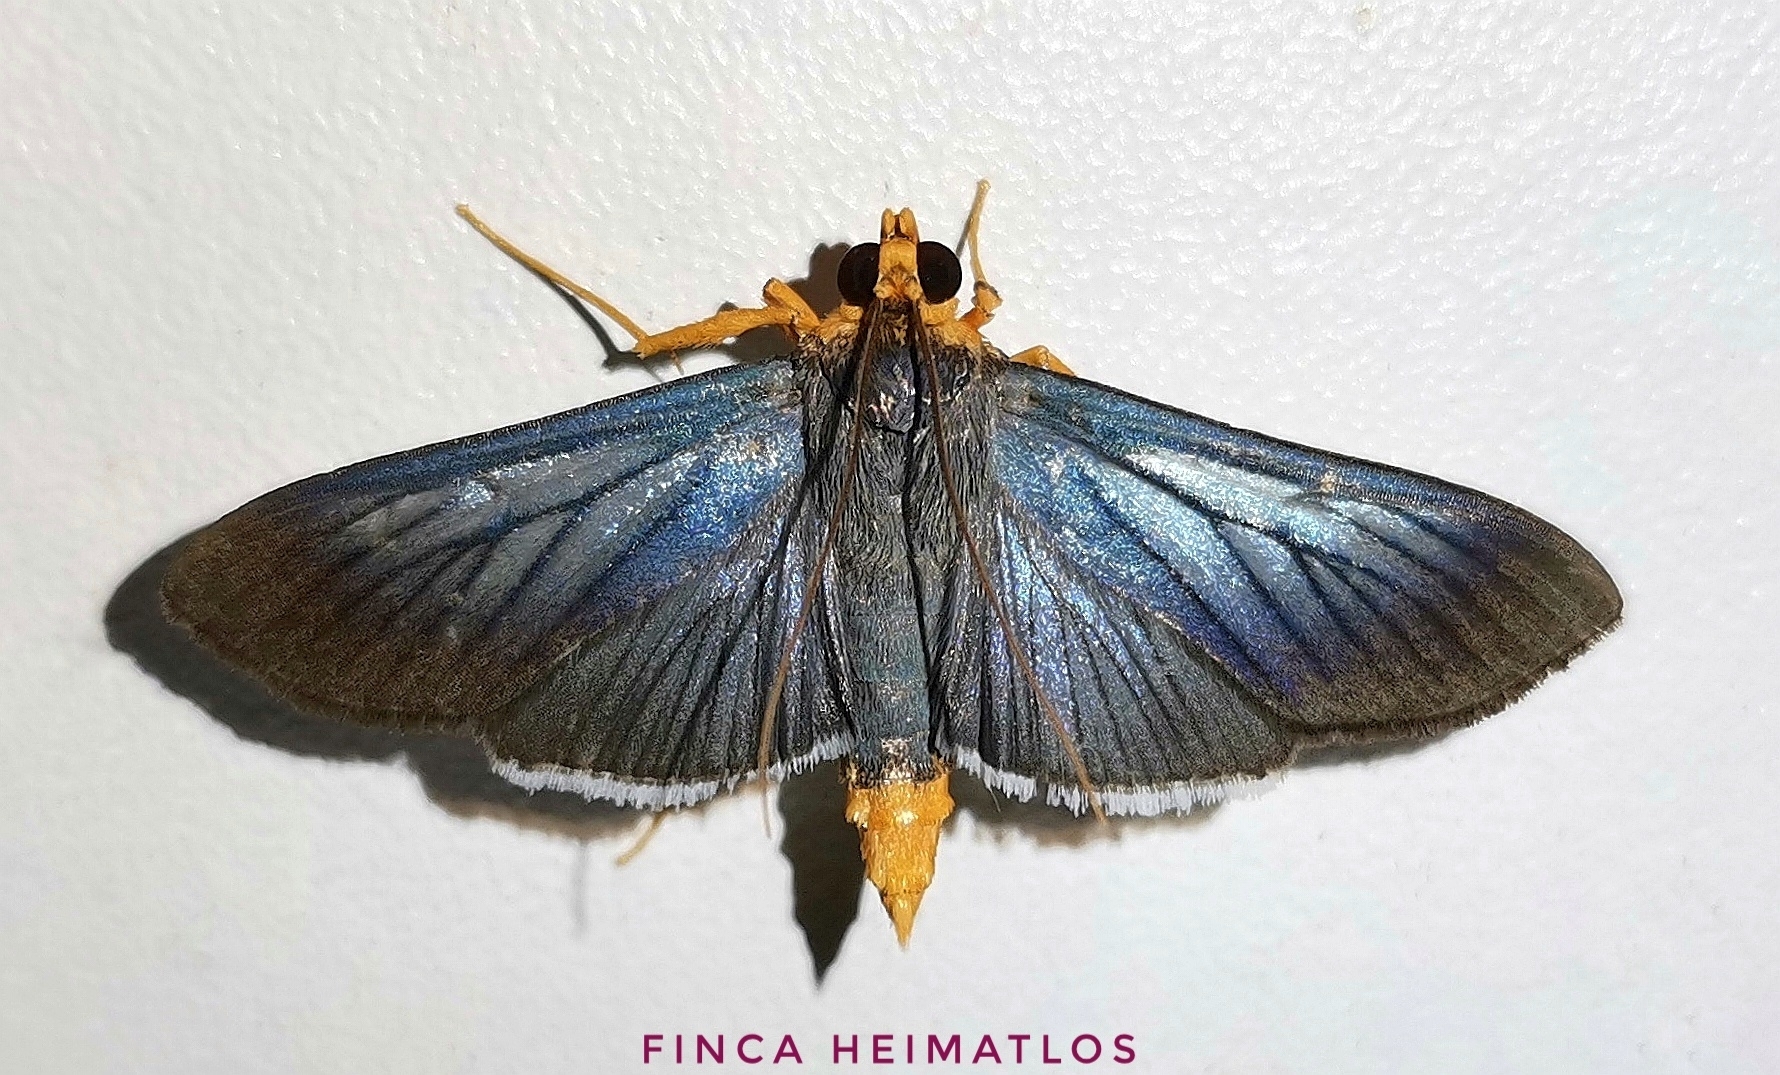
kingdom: Animalia
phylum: Arthropoda
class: Insecta
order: Lepidoptera
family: Crambidae
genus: Omiodes
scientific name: Omiodes fulvicauda
